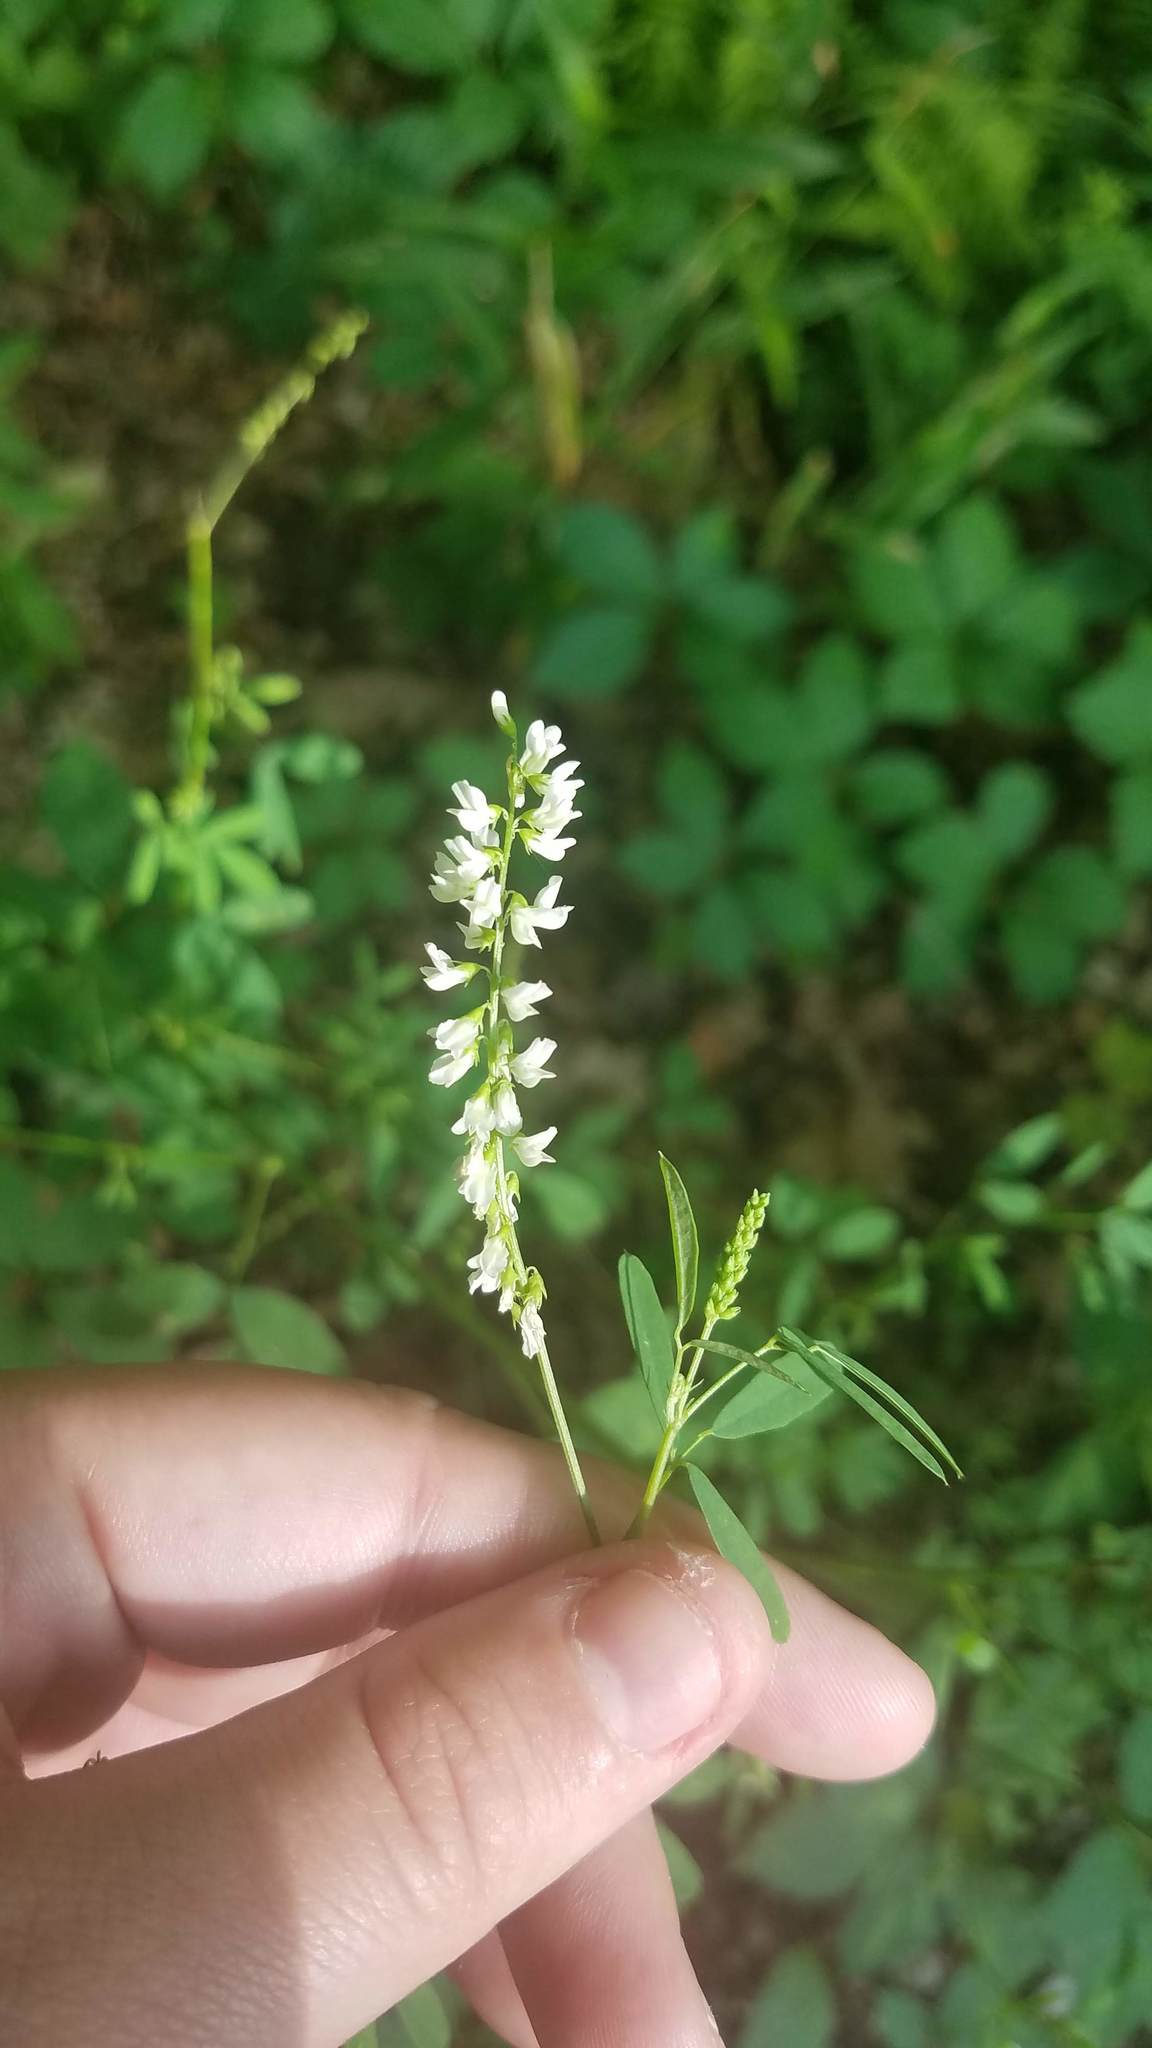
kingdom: Plantae
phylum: Tracheophyta
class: Magnoliopsida
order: Fabales
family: Fabaceae
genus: Melilotus
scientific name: Melilotus albus
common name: White melilot
